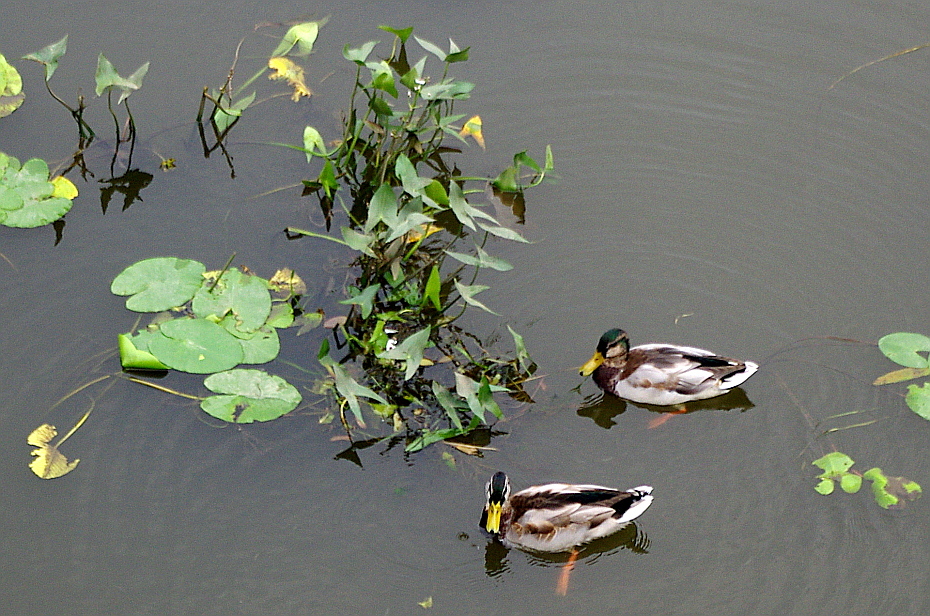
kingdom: Animalia
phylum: Chordata
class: Aves
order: Anseriformes
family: Anatidae
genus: Anas
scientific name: Anas platyrhynchos
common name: Mallard
